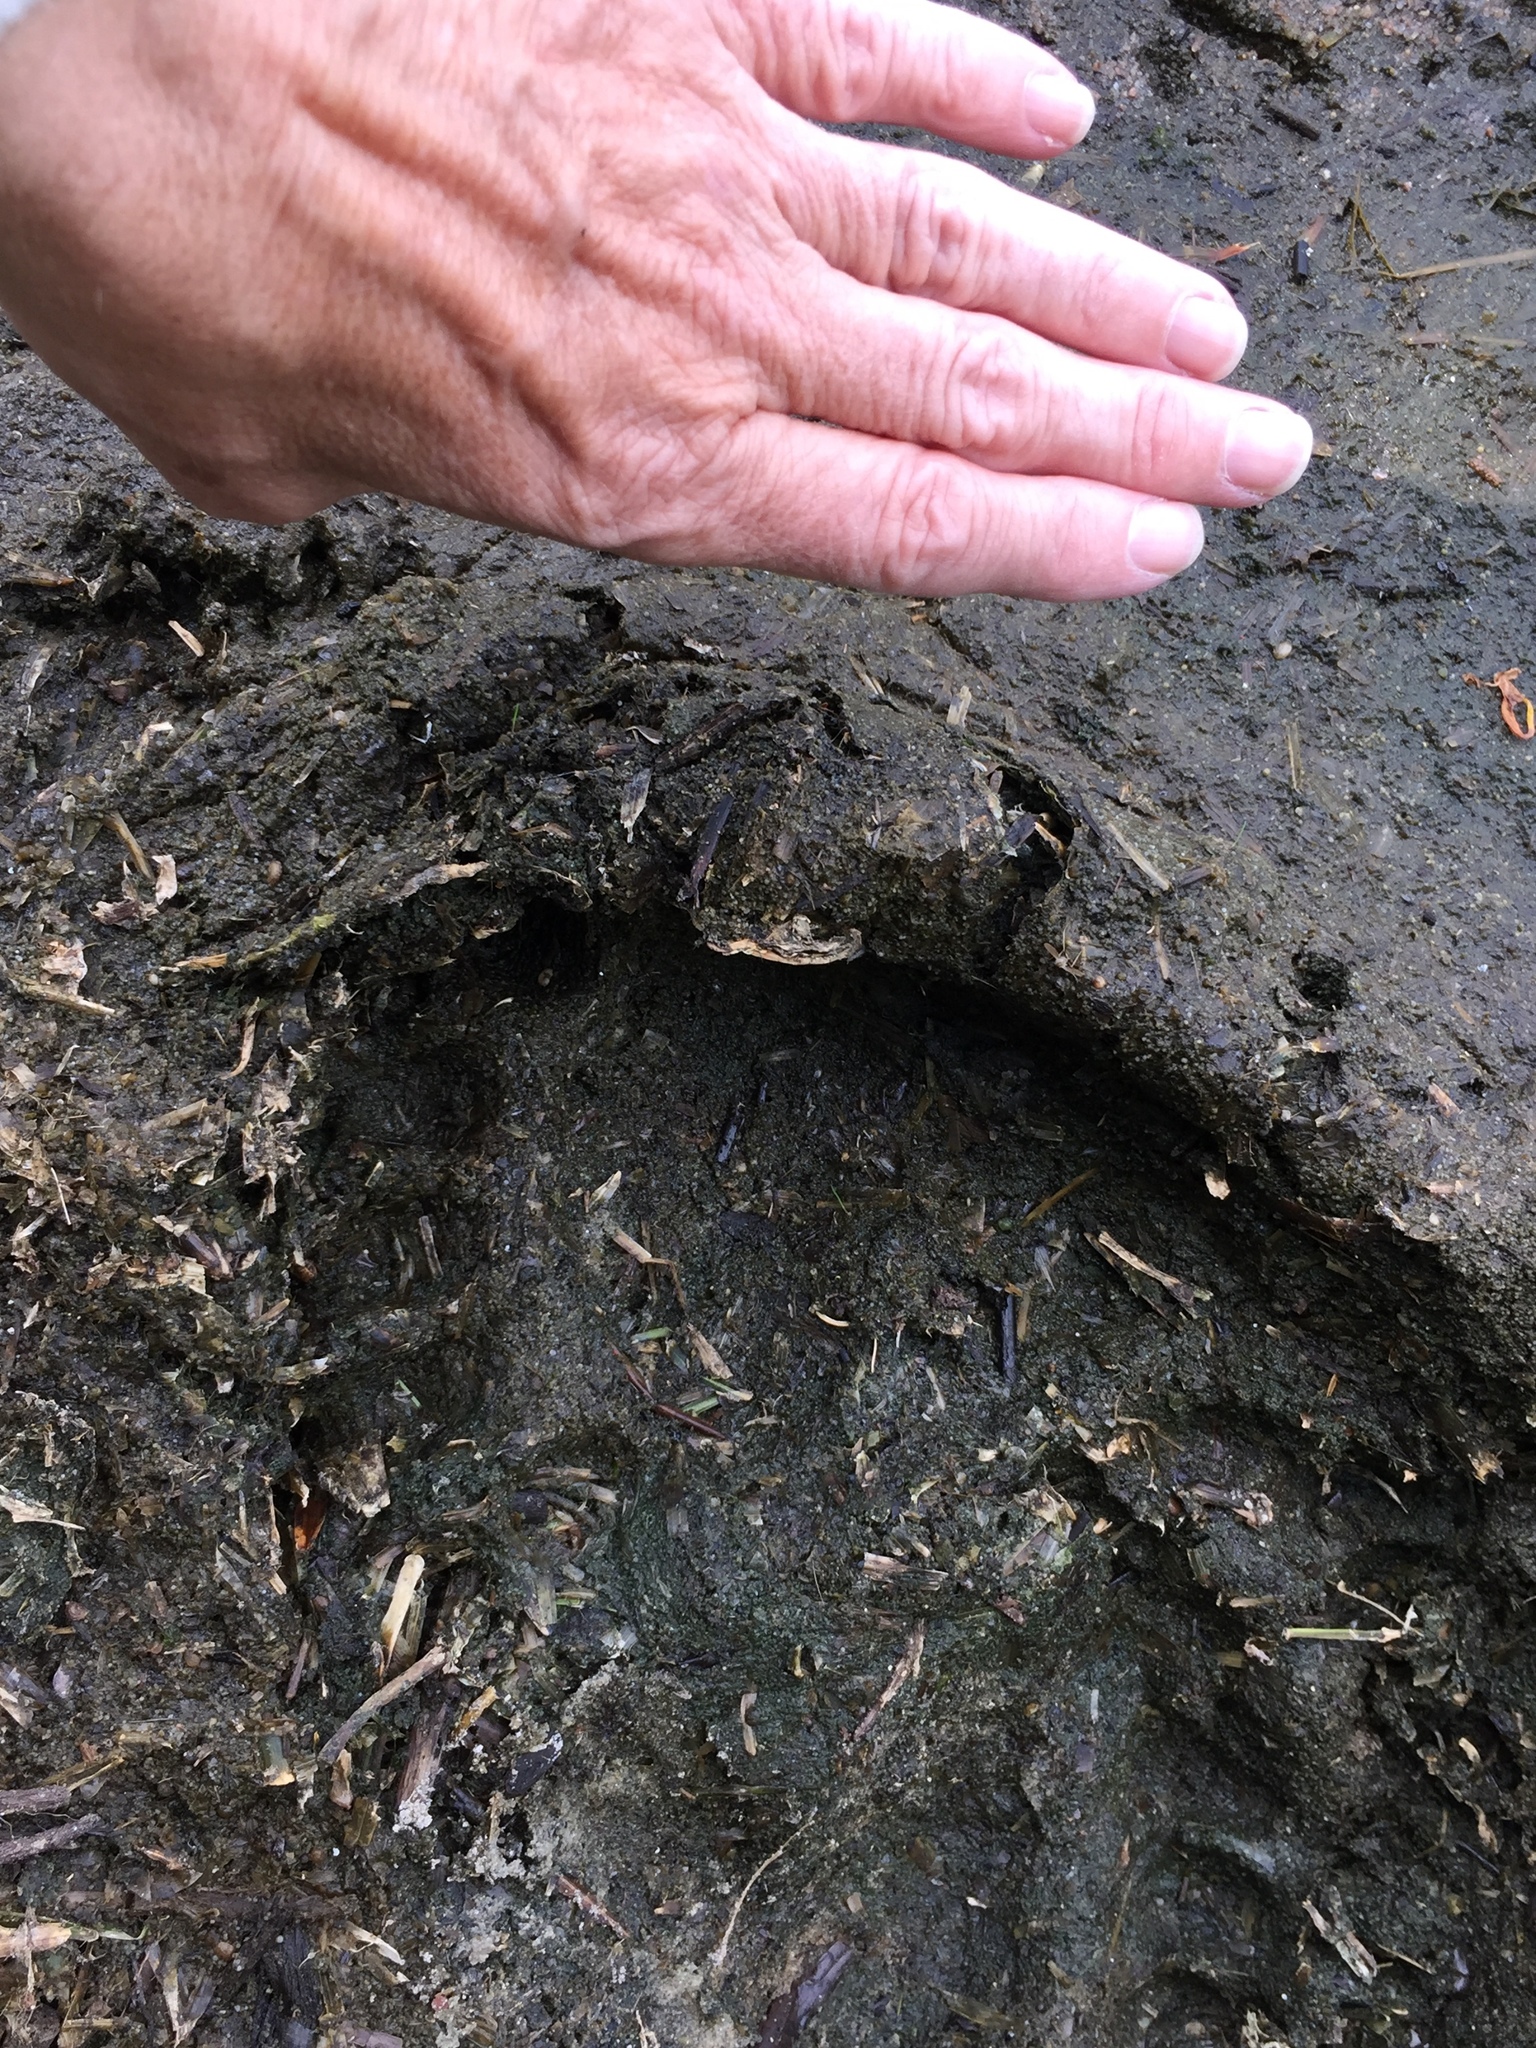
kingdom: Animalia
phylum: Chordata
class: Mammalia
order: Carnivora
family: Ursidae
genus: Ursus
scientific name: Ursus americanus
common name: American black bear
